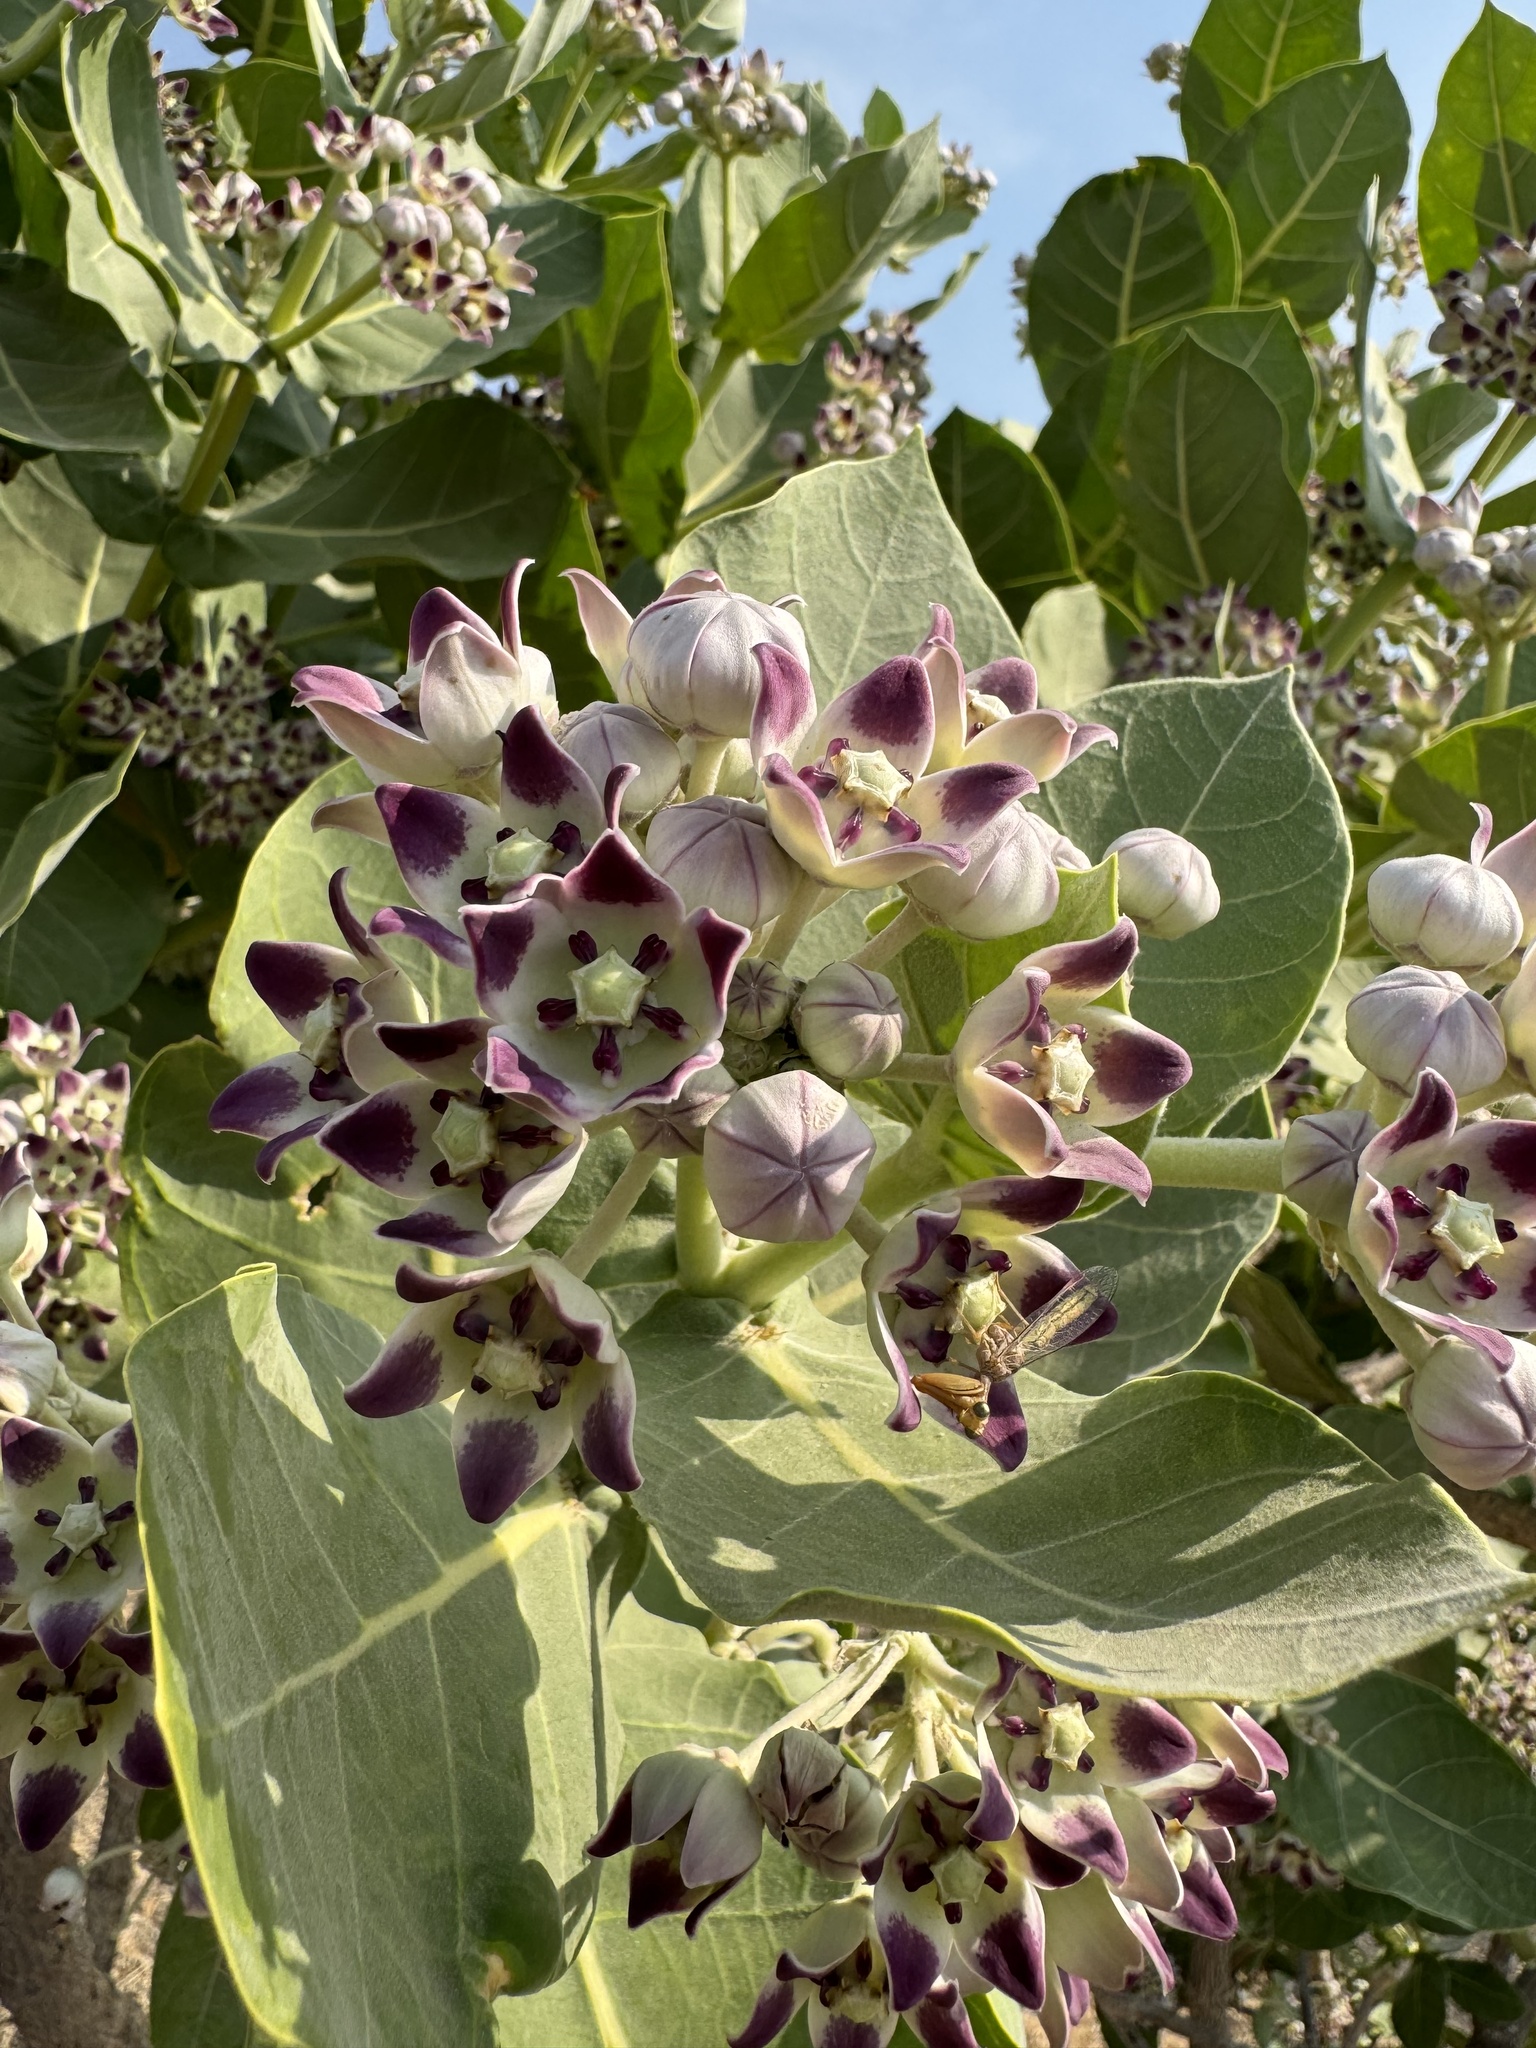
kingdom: Plantae
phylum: Tracheophyta
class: Magnoliopsida
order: Gentianales
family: Apocynaceae
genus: Calotropis
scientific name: Calotropis procera
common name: Roostertree
